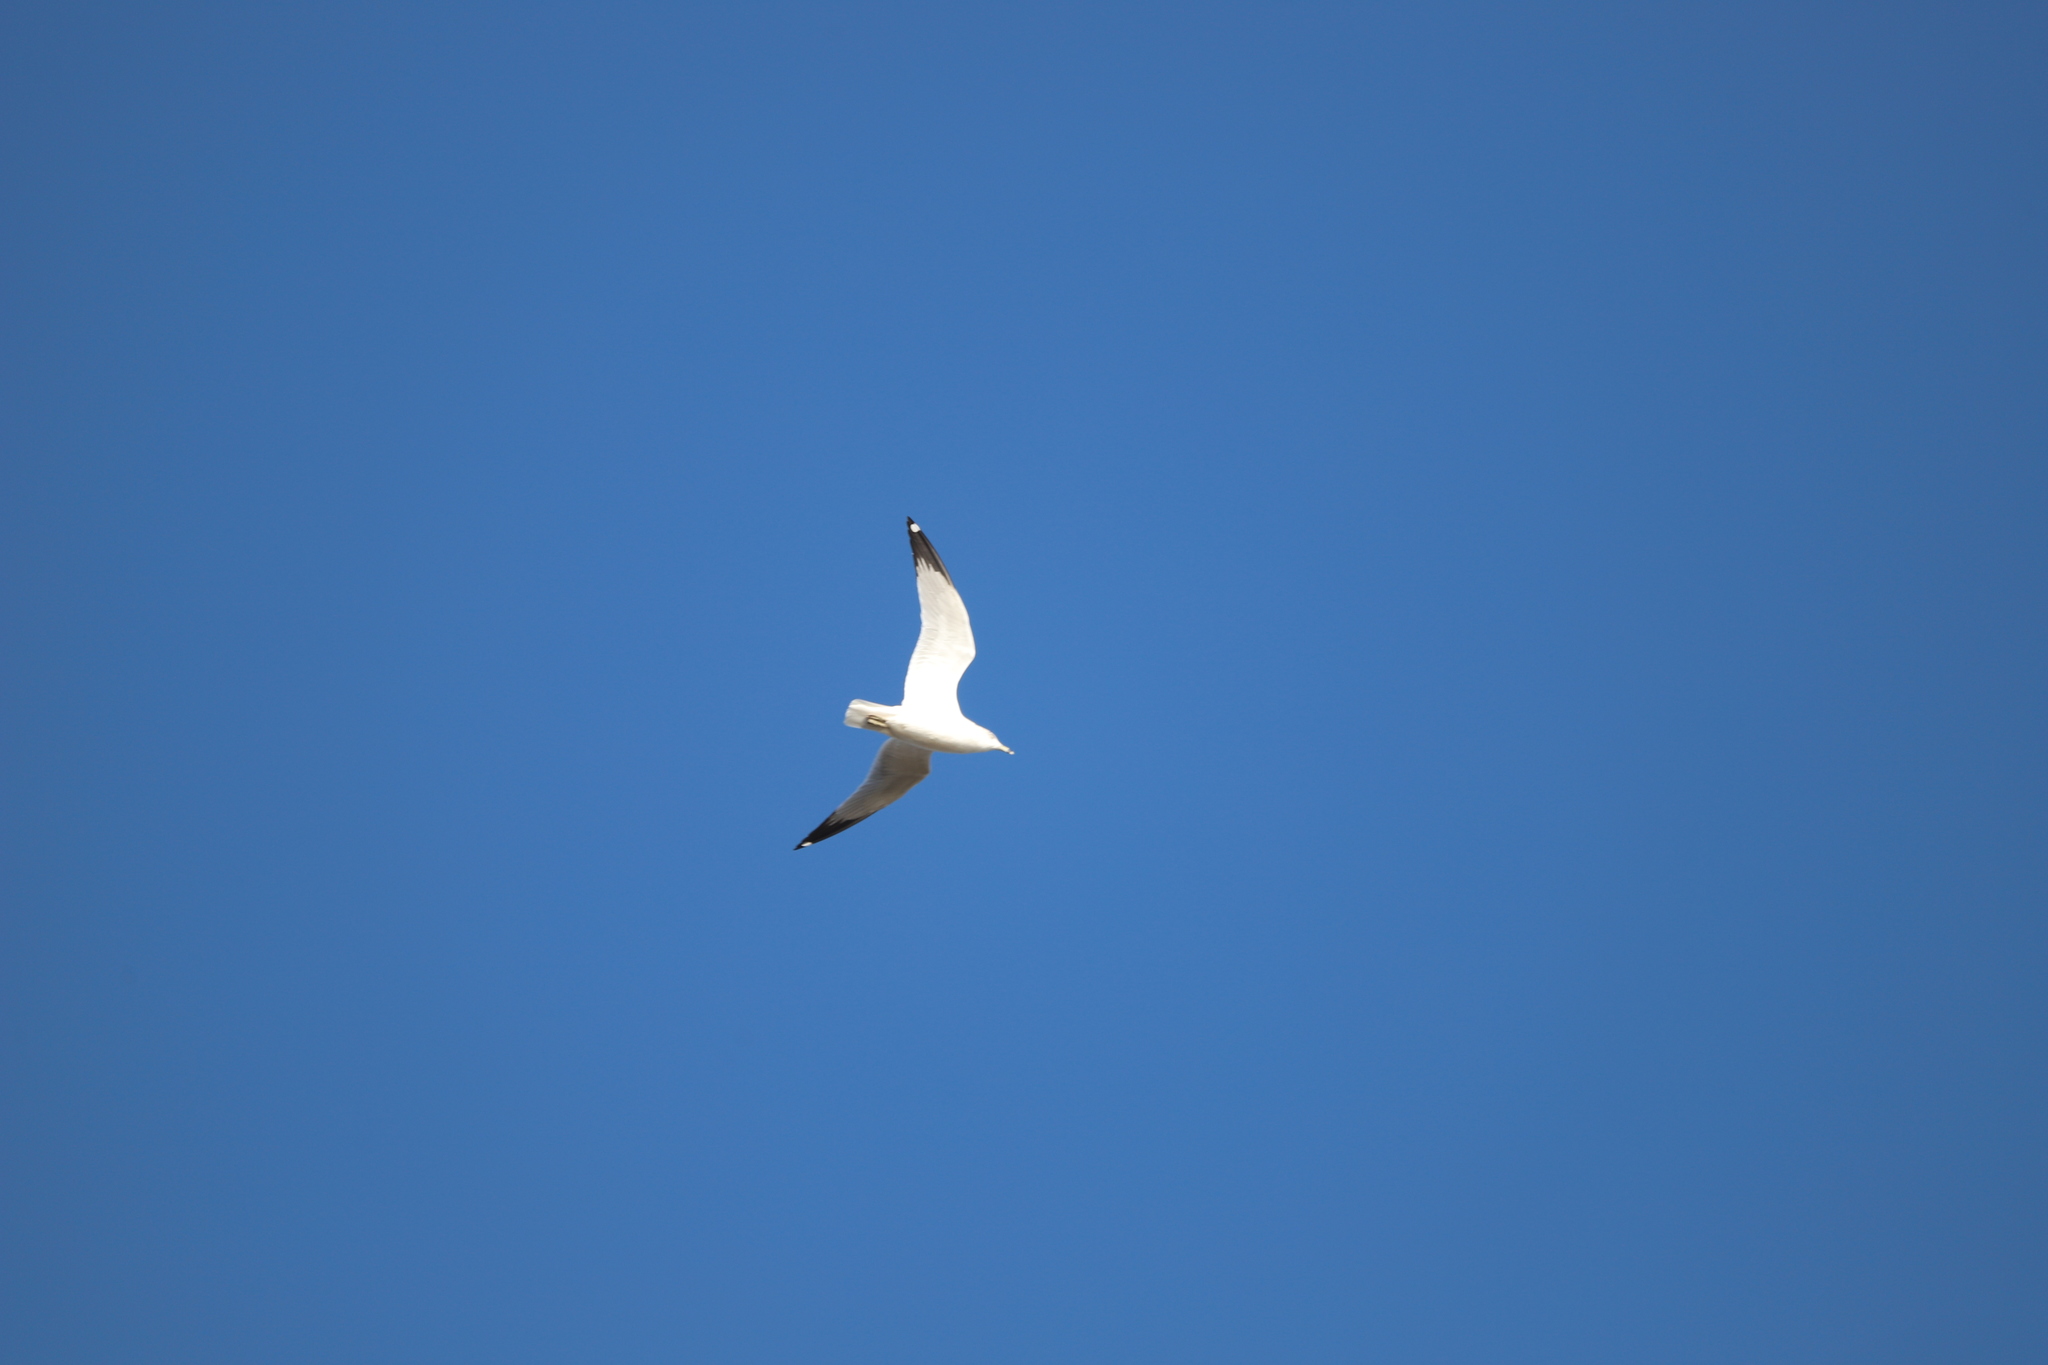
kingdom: Animalia
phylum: Chordata
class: Aves
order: Charadriiformes
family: Laridae
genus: Larus
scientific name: Larus delawarensis
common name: Ring-billed gull
